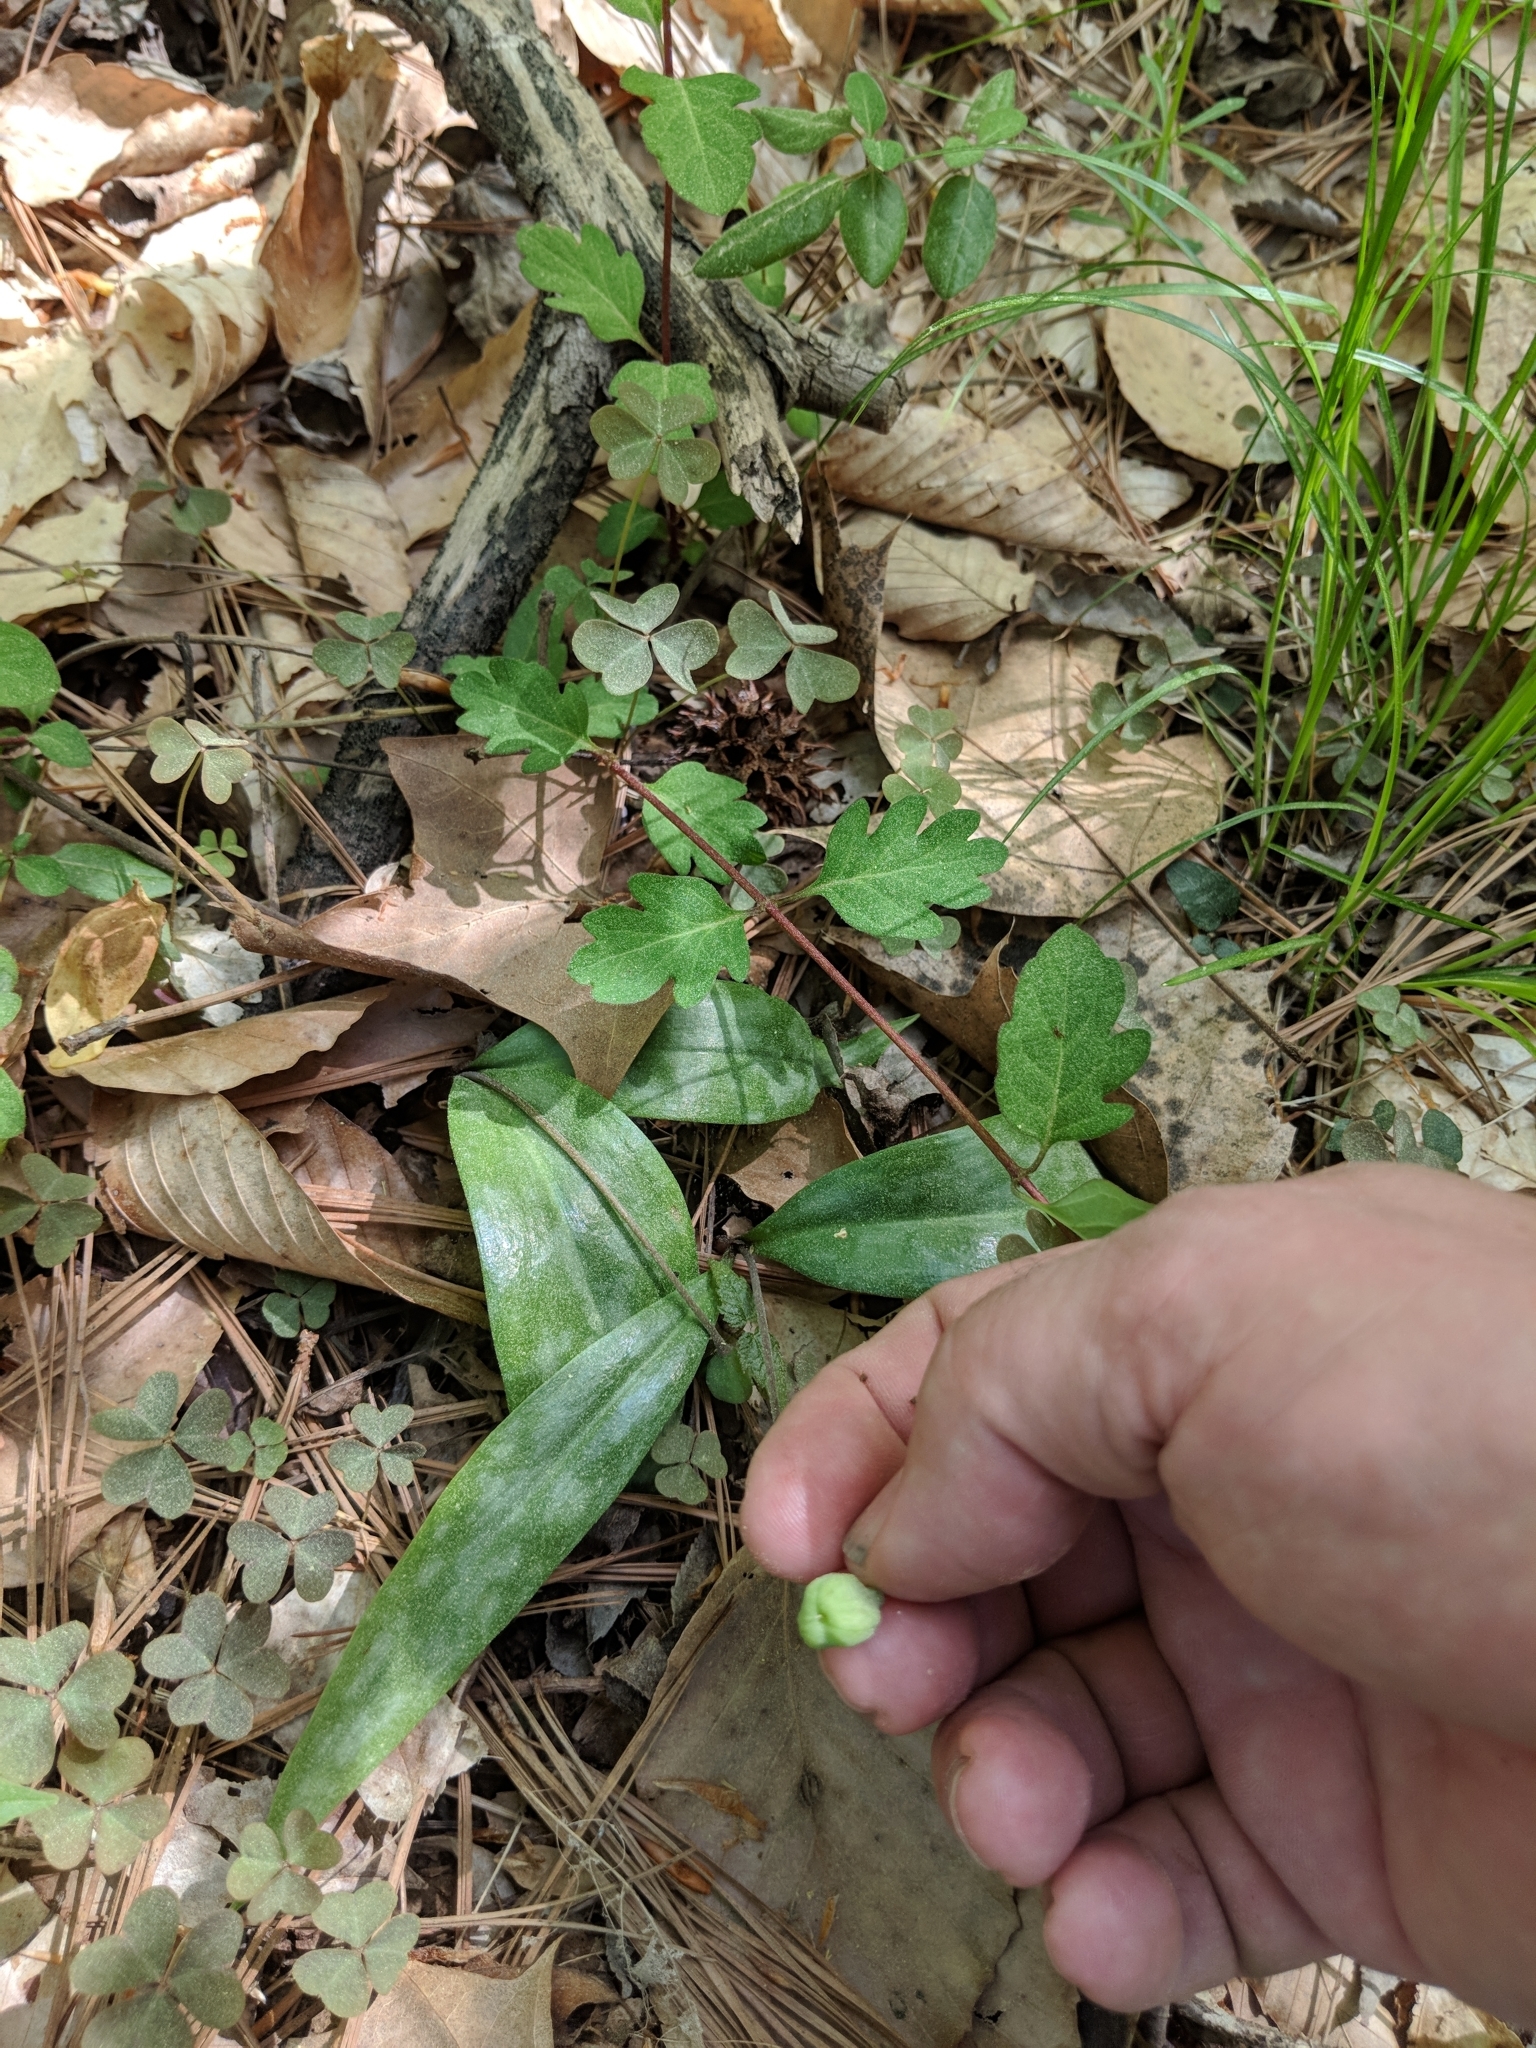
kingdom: Plantae
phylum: Tracheophyta
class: Liliopsida
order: Liliales
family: Liliaceae
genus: Erythronium
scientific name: Erythronium umbilicatum
